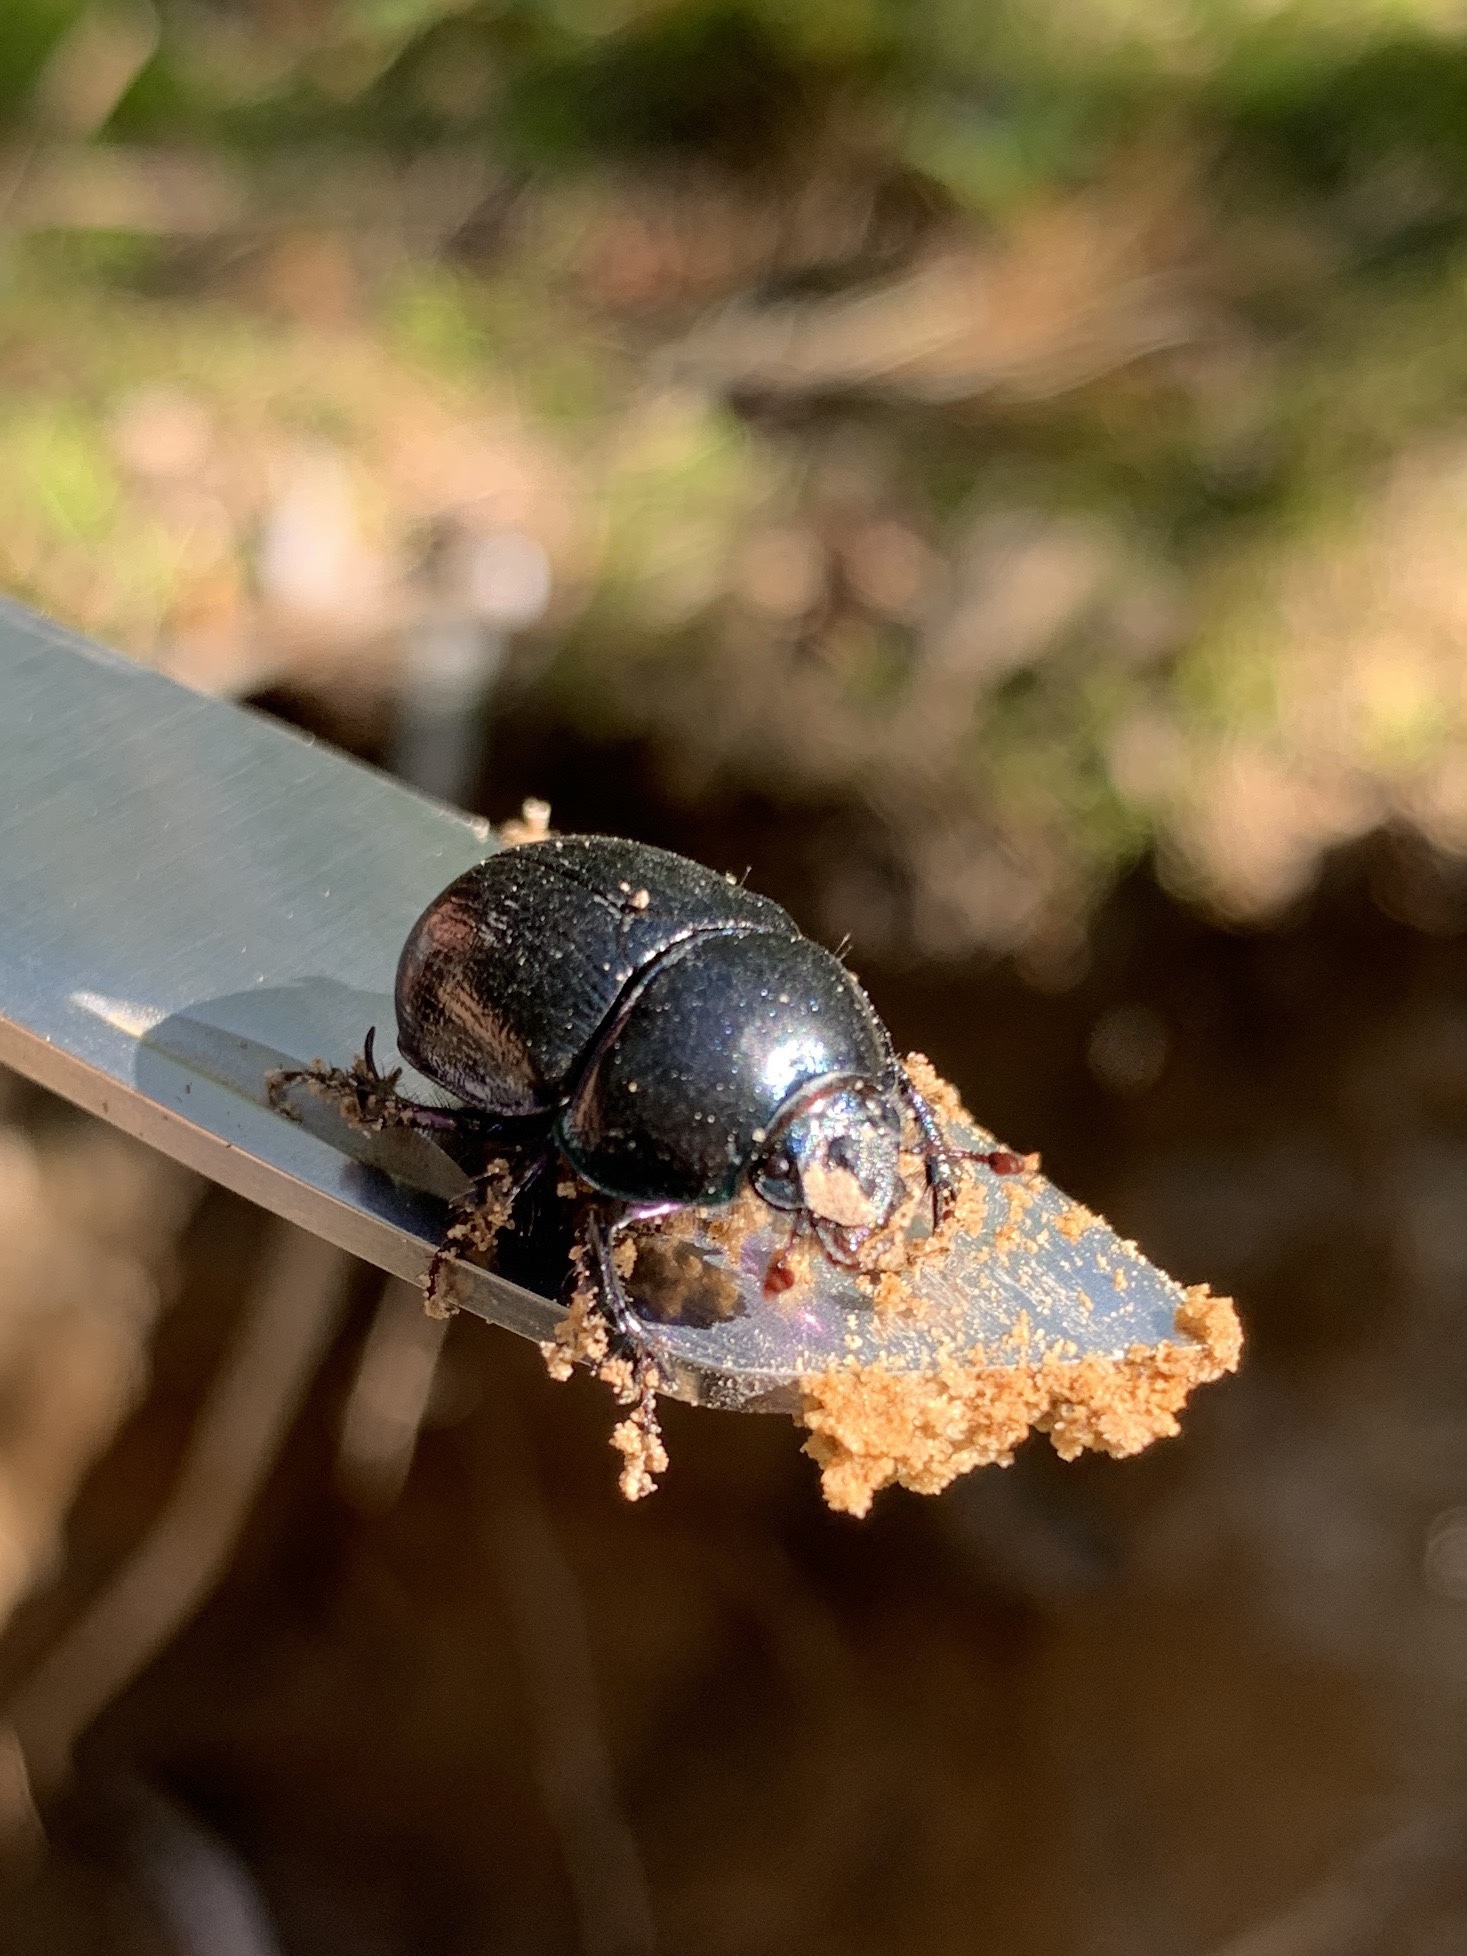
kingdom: Animalia
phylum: Arthropoda
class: Insecta
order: Coleoptera
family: Geotrupidae
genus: Anoplotrupes
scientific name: Anoplotrupes stercorosus
